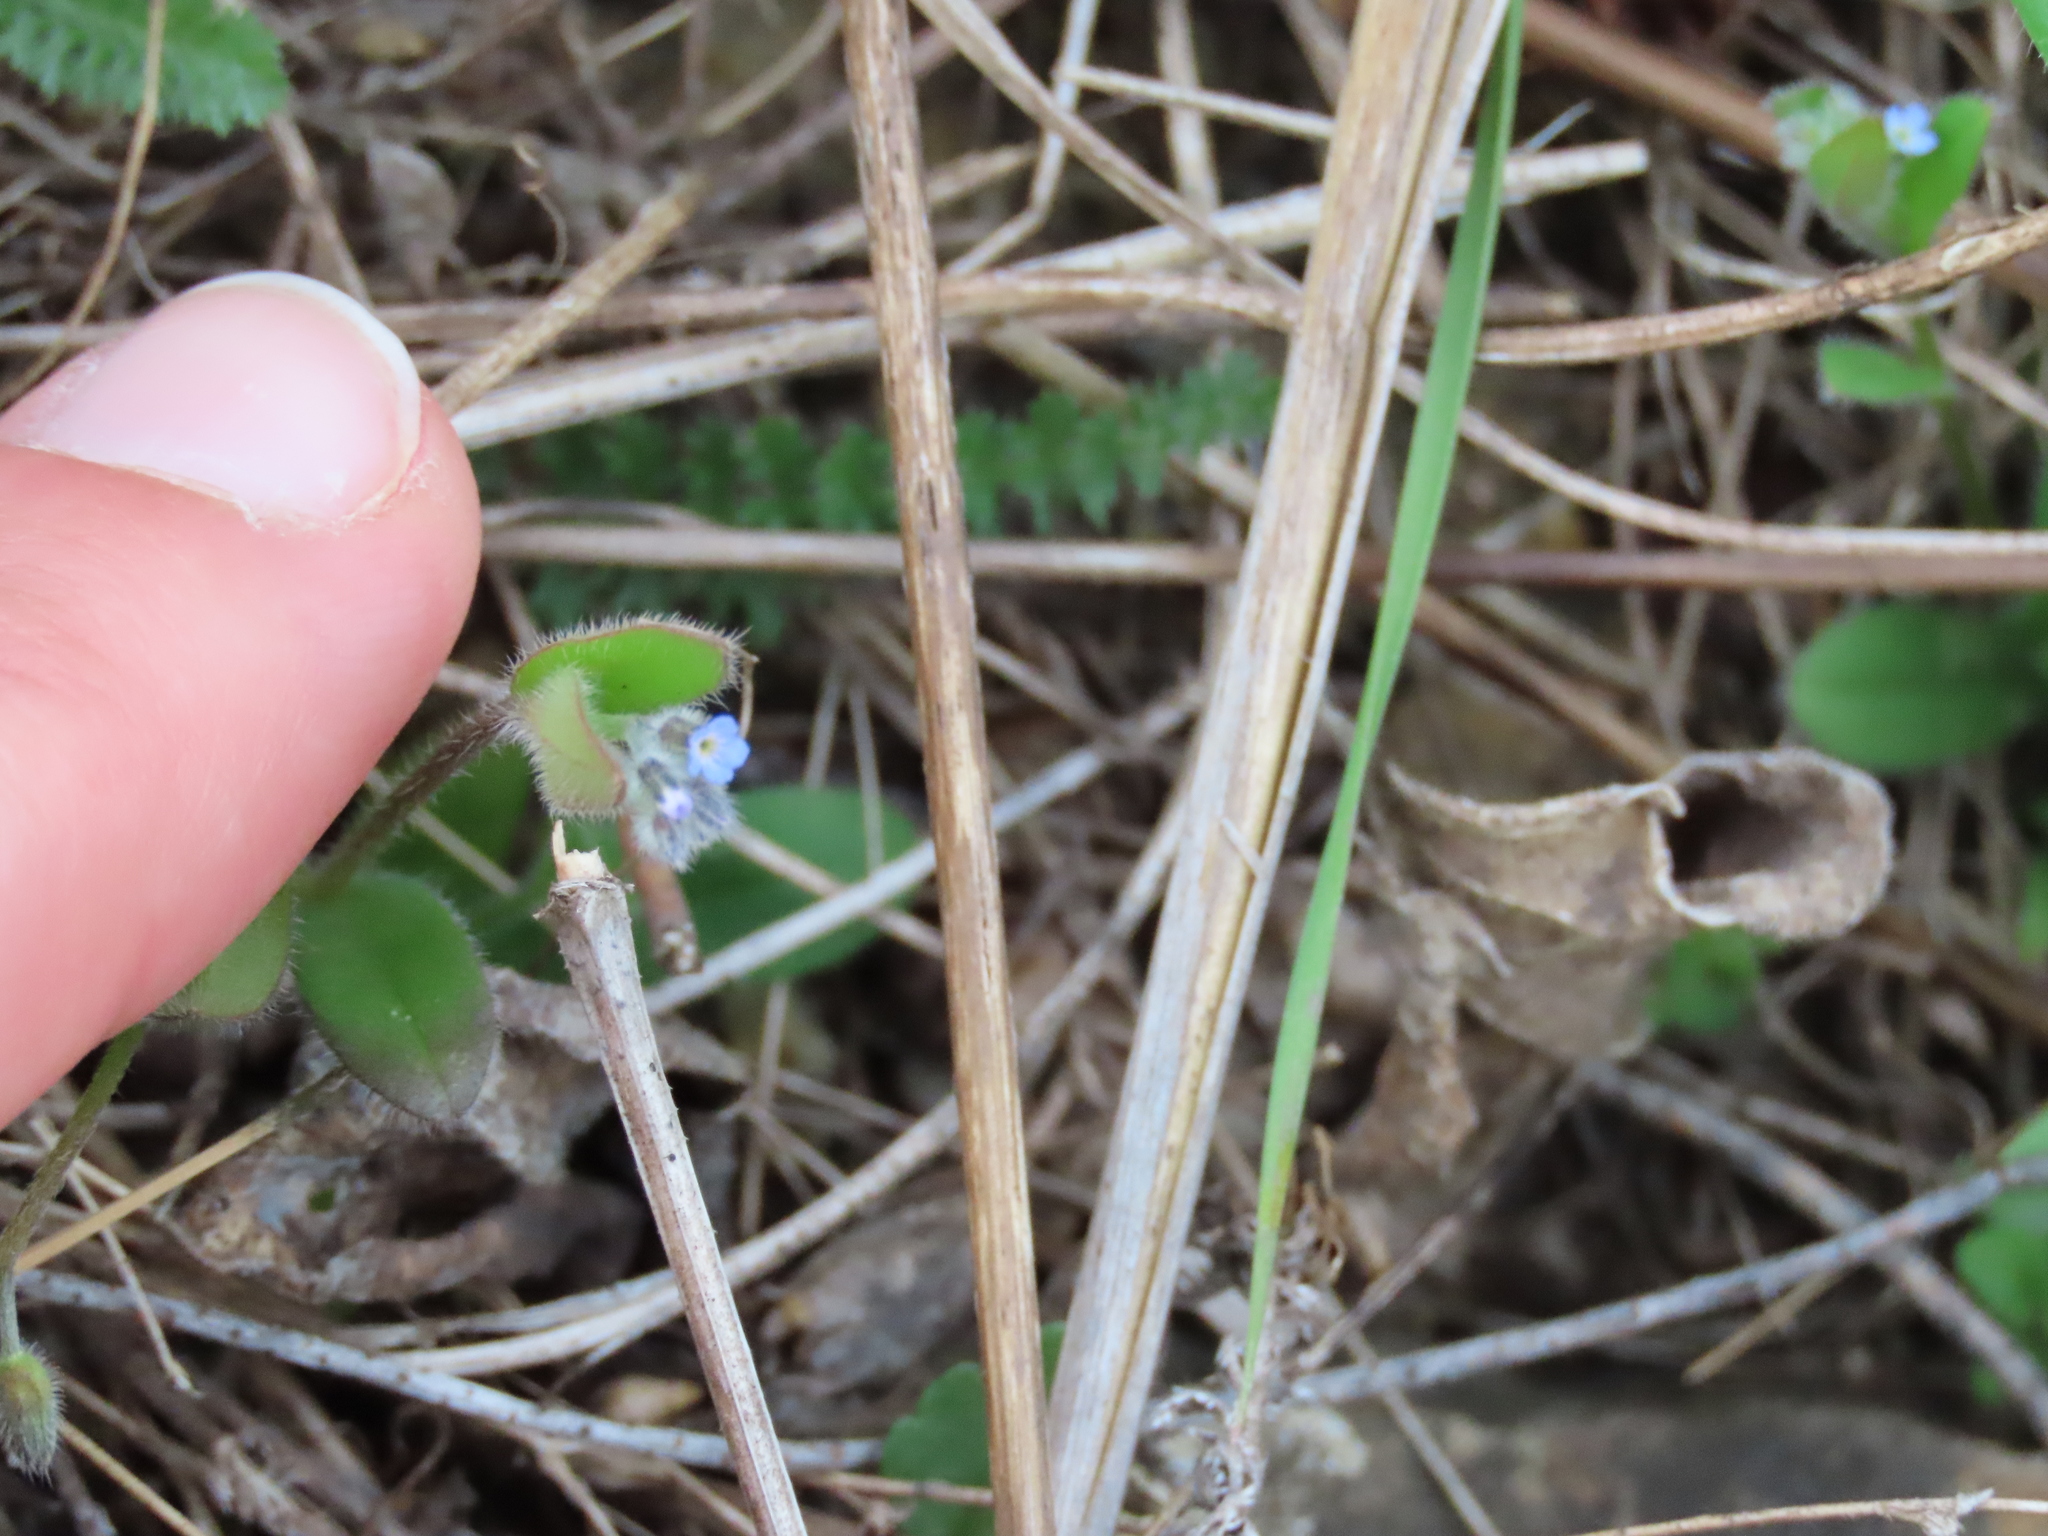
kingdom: Plantae
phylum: Tracheophyta
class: Magnoliopsida
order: Boraginales
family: Boraginaceae
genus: Myosotis
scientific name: Myosotis ramosissima
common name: Early forget-me-not
